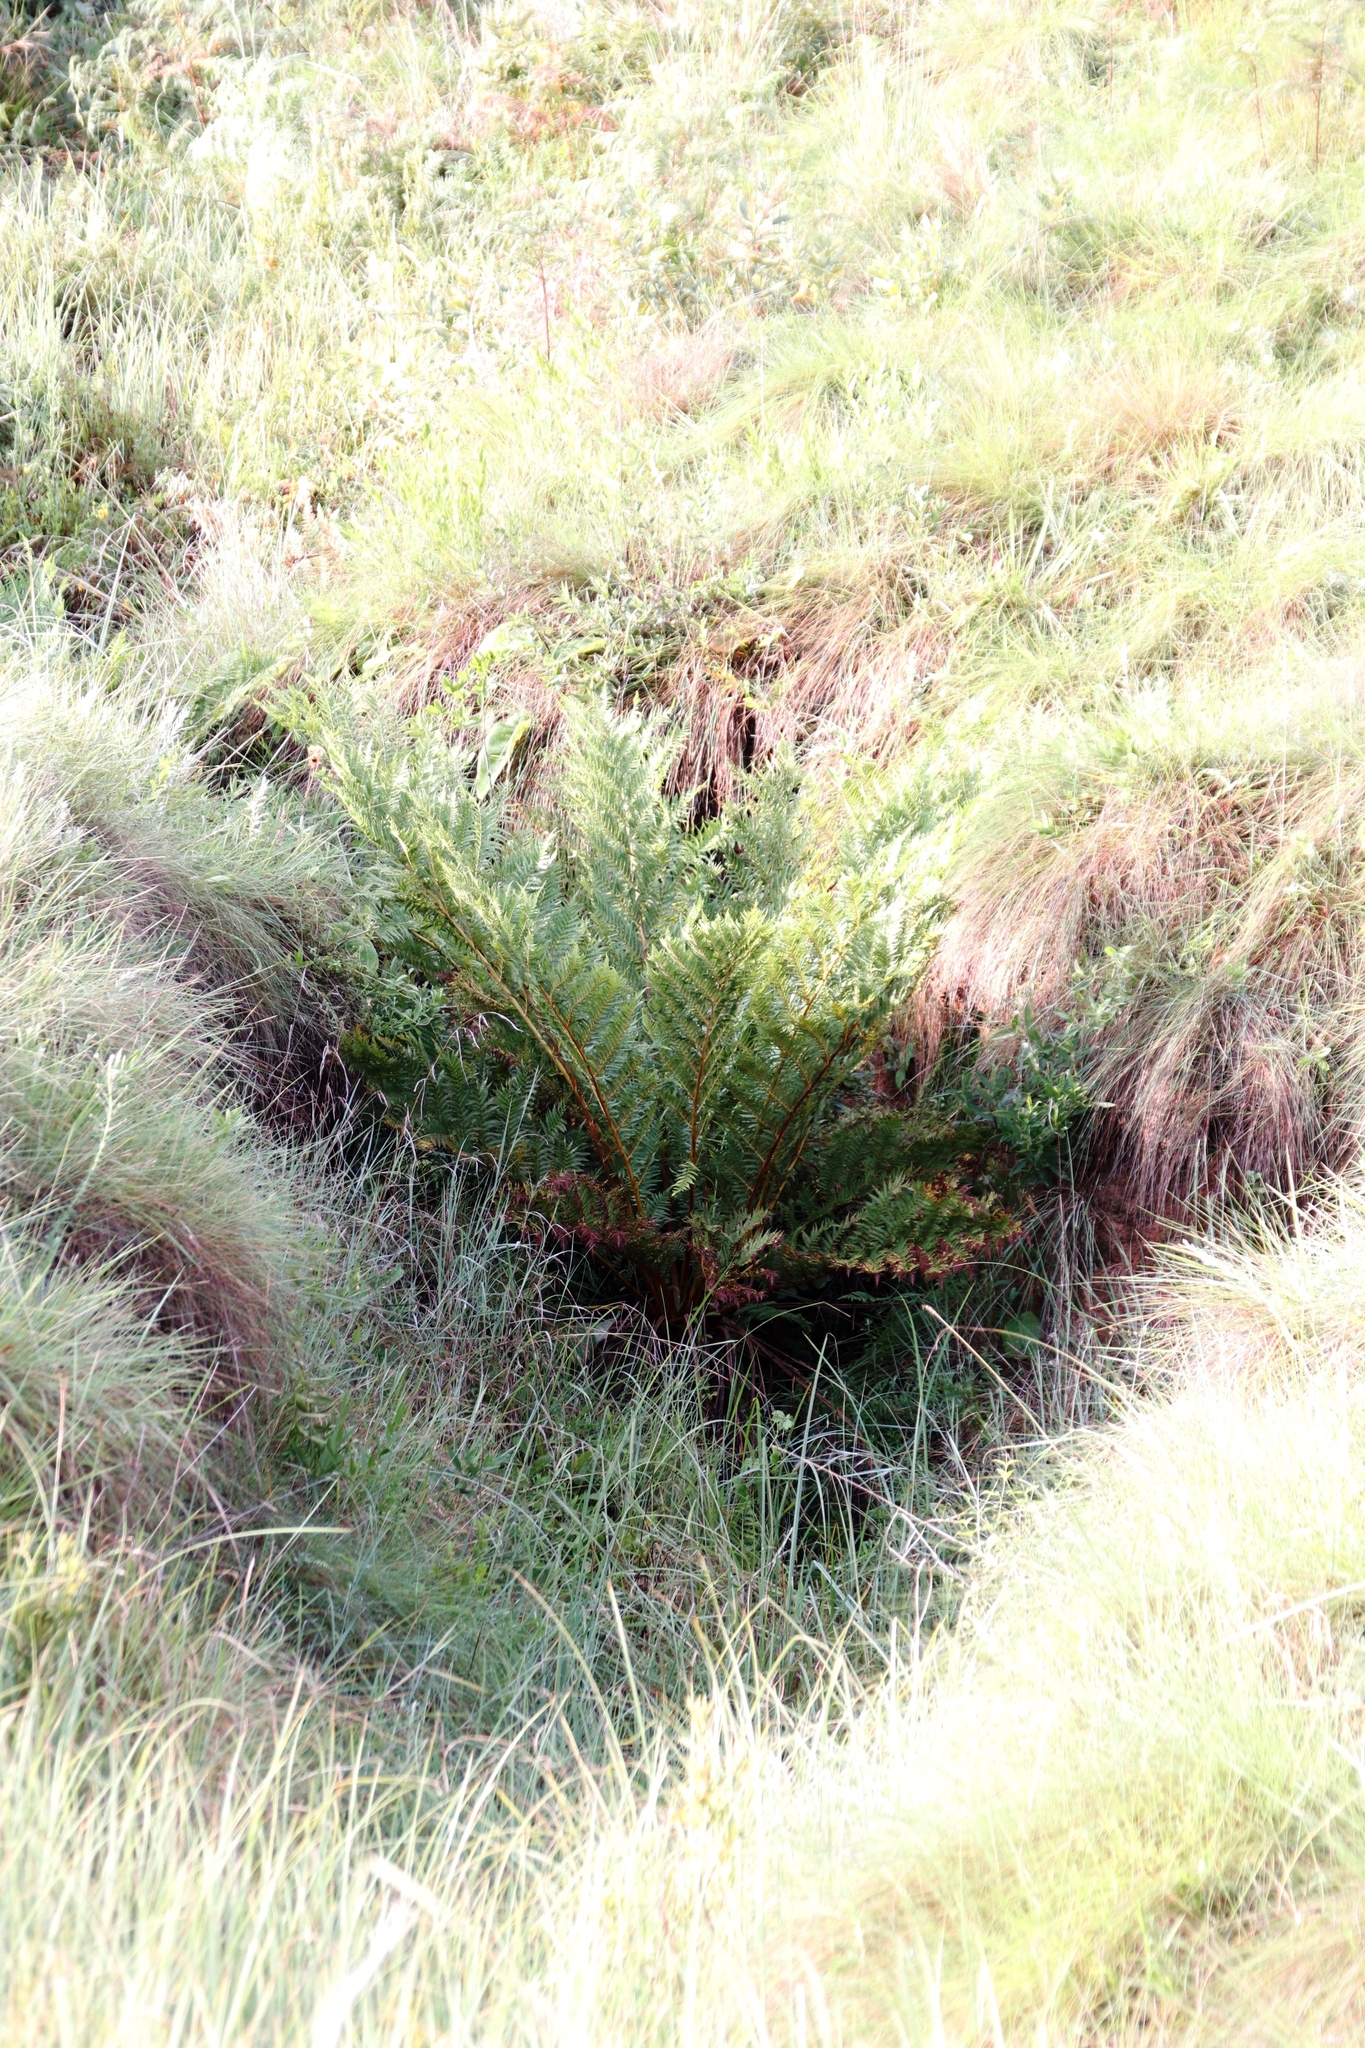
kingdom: Plantae
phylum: Tracheophyta
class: Polypodiopsida
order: Cyatheales
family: Cyatheaceae
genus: Alsophila
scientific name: Alsophila dregei
